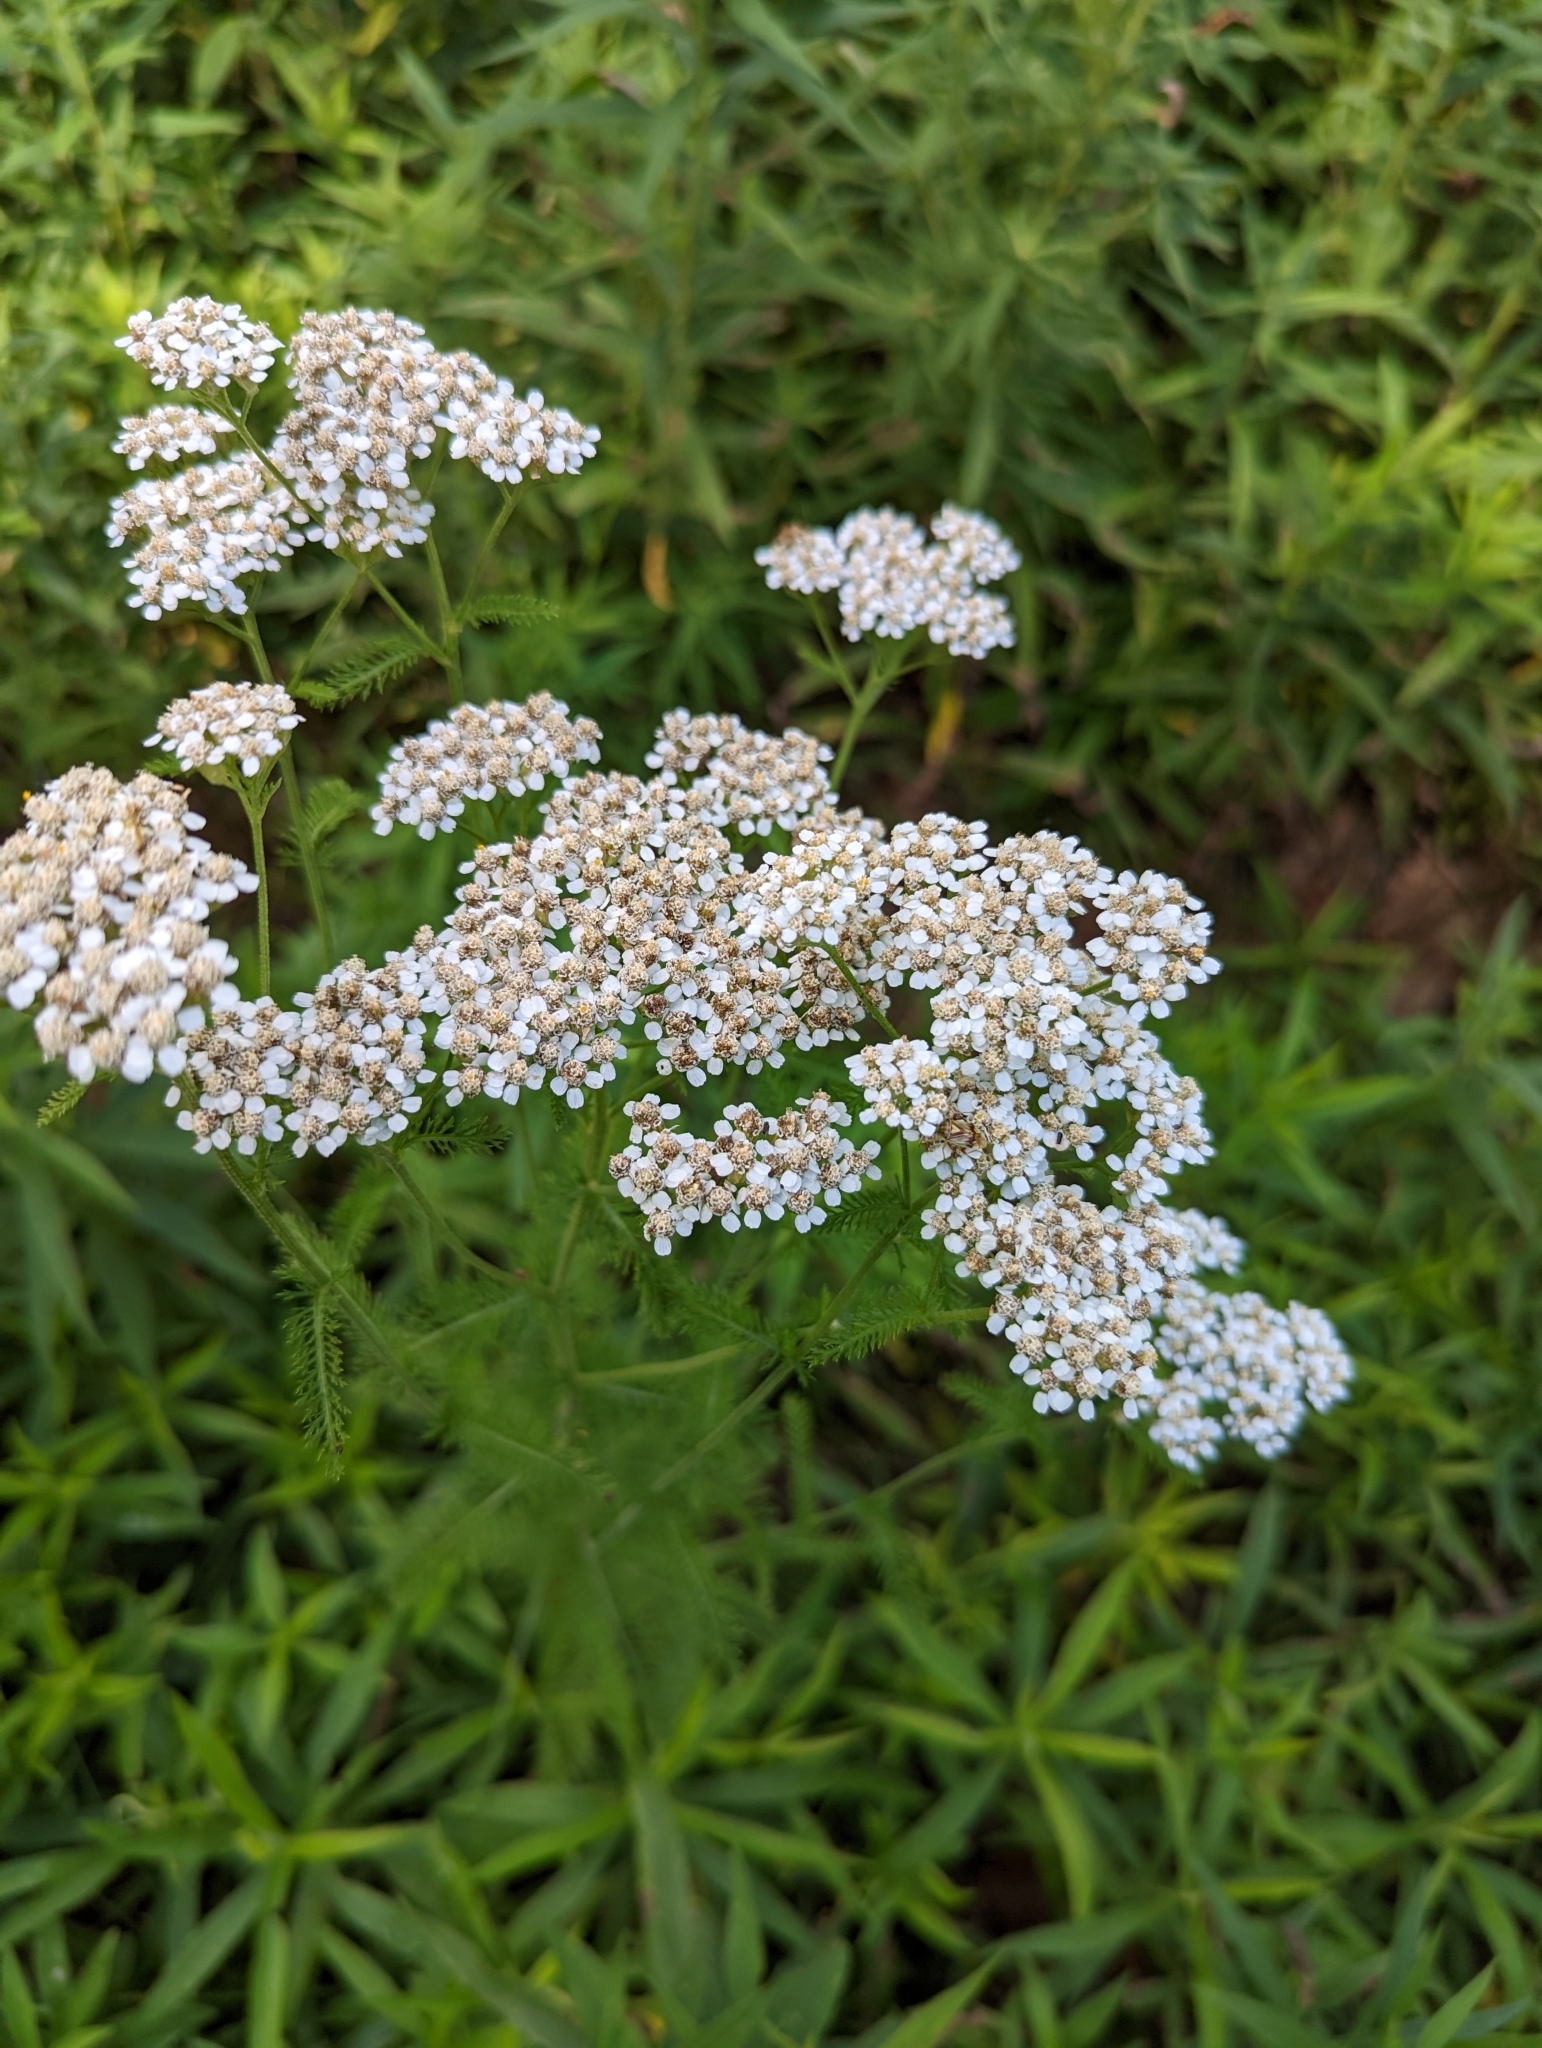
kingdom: Plantae
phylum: Tracheophyta
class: Magnoliopsida
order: Asterales
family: Asteraceae
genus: Achillea
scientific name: Achillea millefolium
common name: Yarrow
